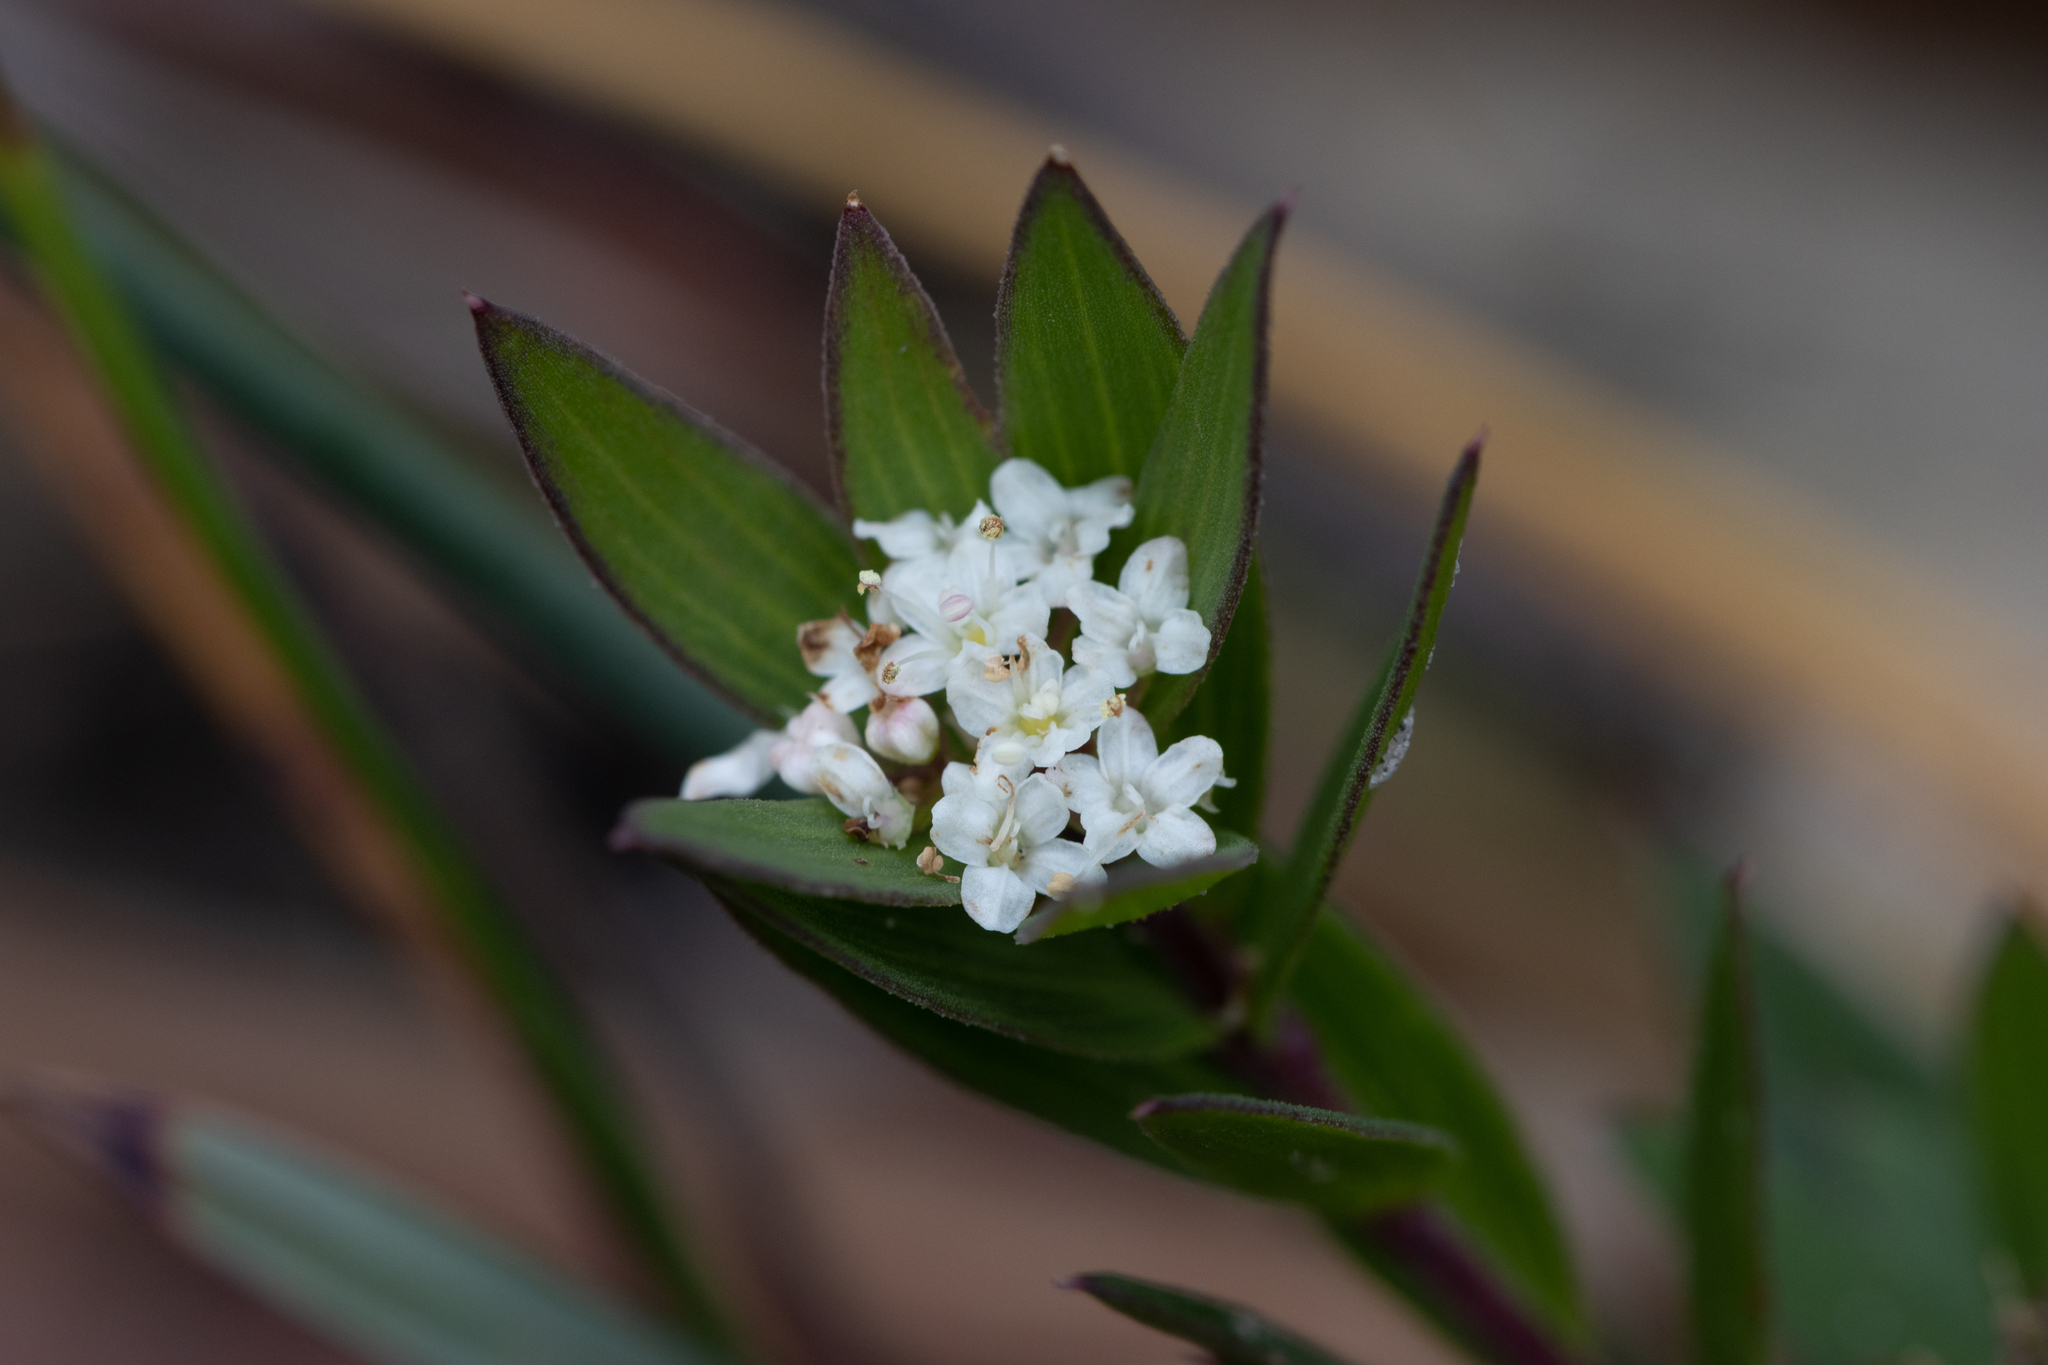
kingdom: Plantae
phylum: Tracheophyta
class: Magnoliopsida
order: Apiales
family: Apiaceae
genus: Platysace
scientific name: Platysace lanceolata
